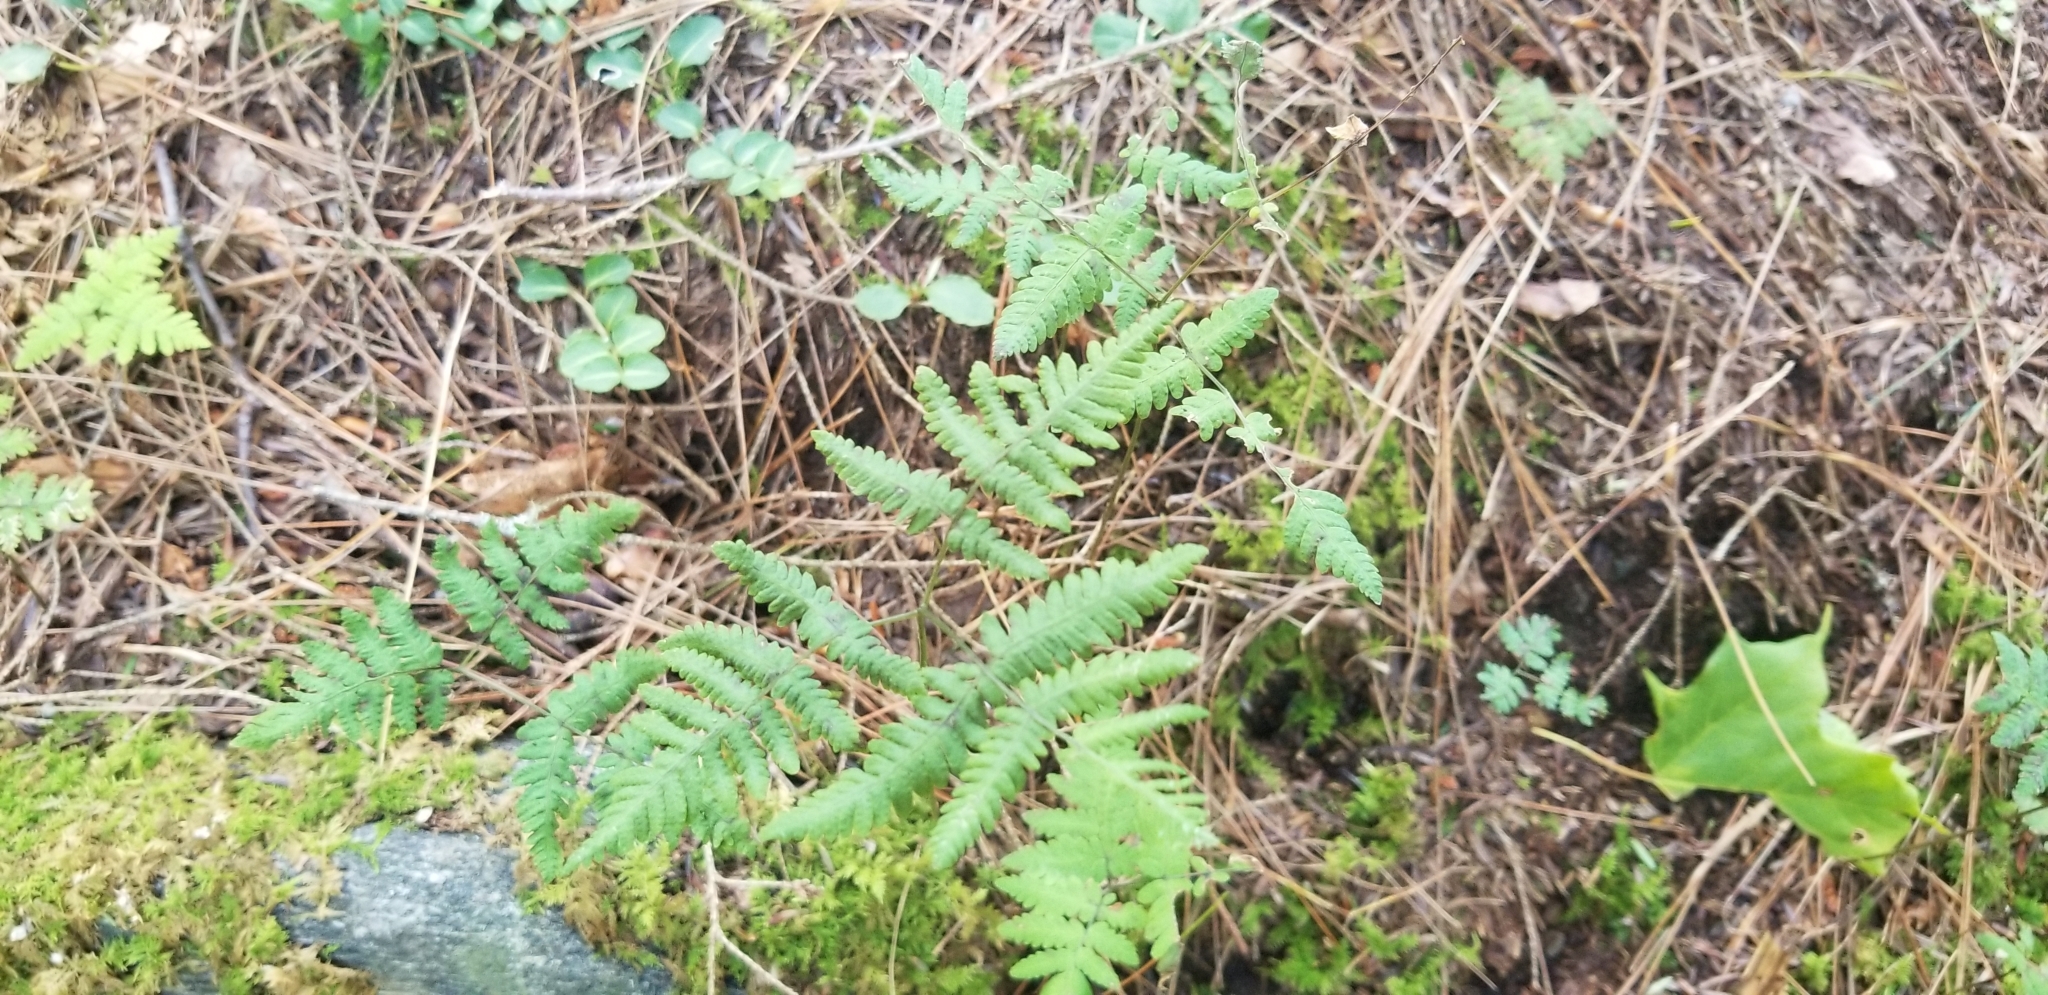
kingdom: Plantae
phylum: Tracheophyta
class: Polypodiopsida
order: Polypodiales
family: Cystopteridaceae
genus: Gymnocarpium
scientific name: Gymnocarpium dryopteris
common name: Oak fern
